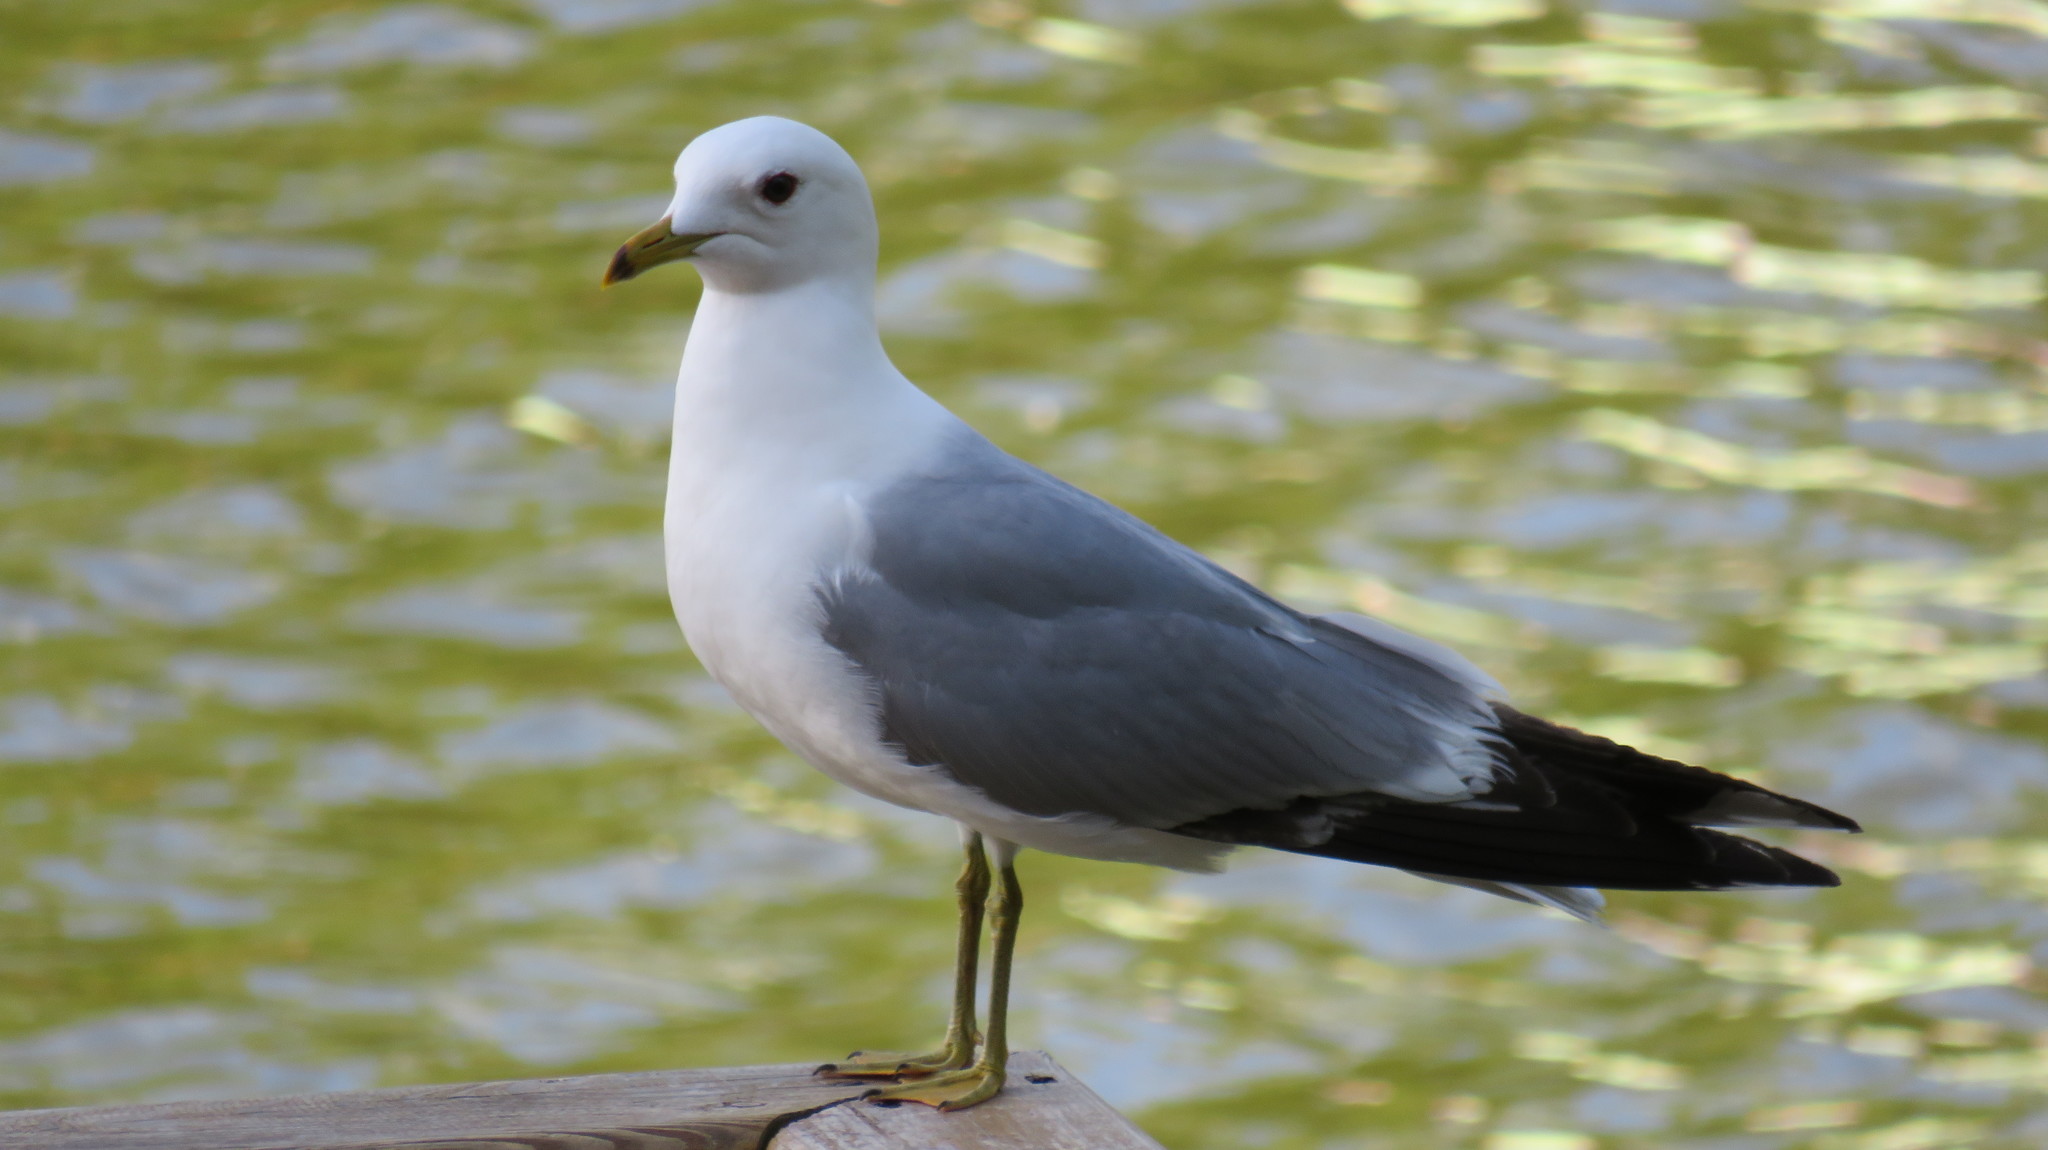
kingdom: Animalia
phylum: Chordata
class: Aves
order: Charadriiformes
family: Laridae
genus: Larus
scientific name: Larus canus
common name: Mew gull
